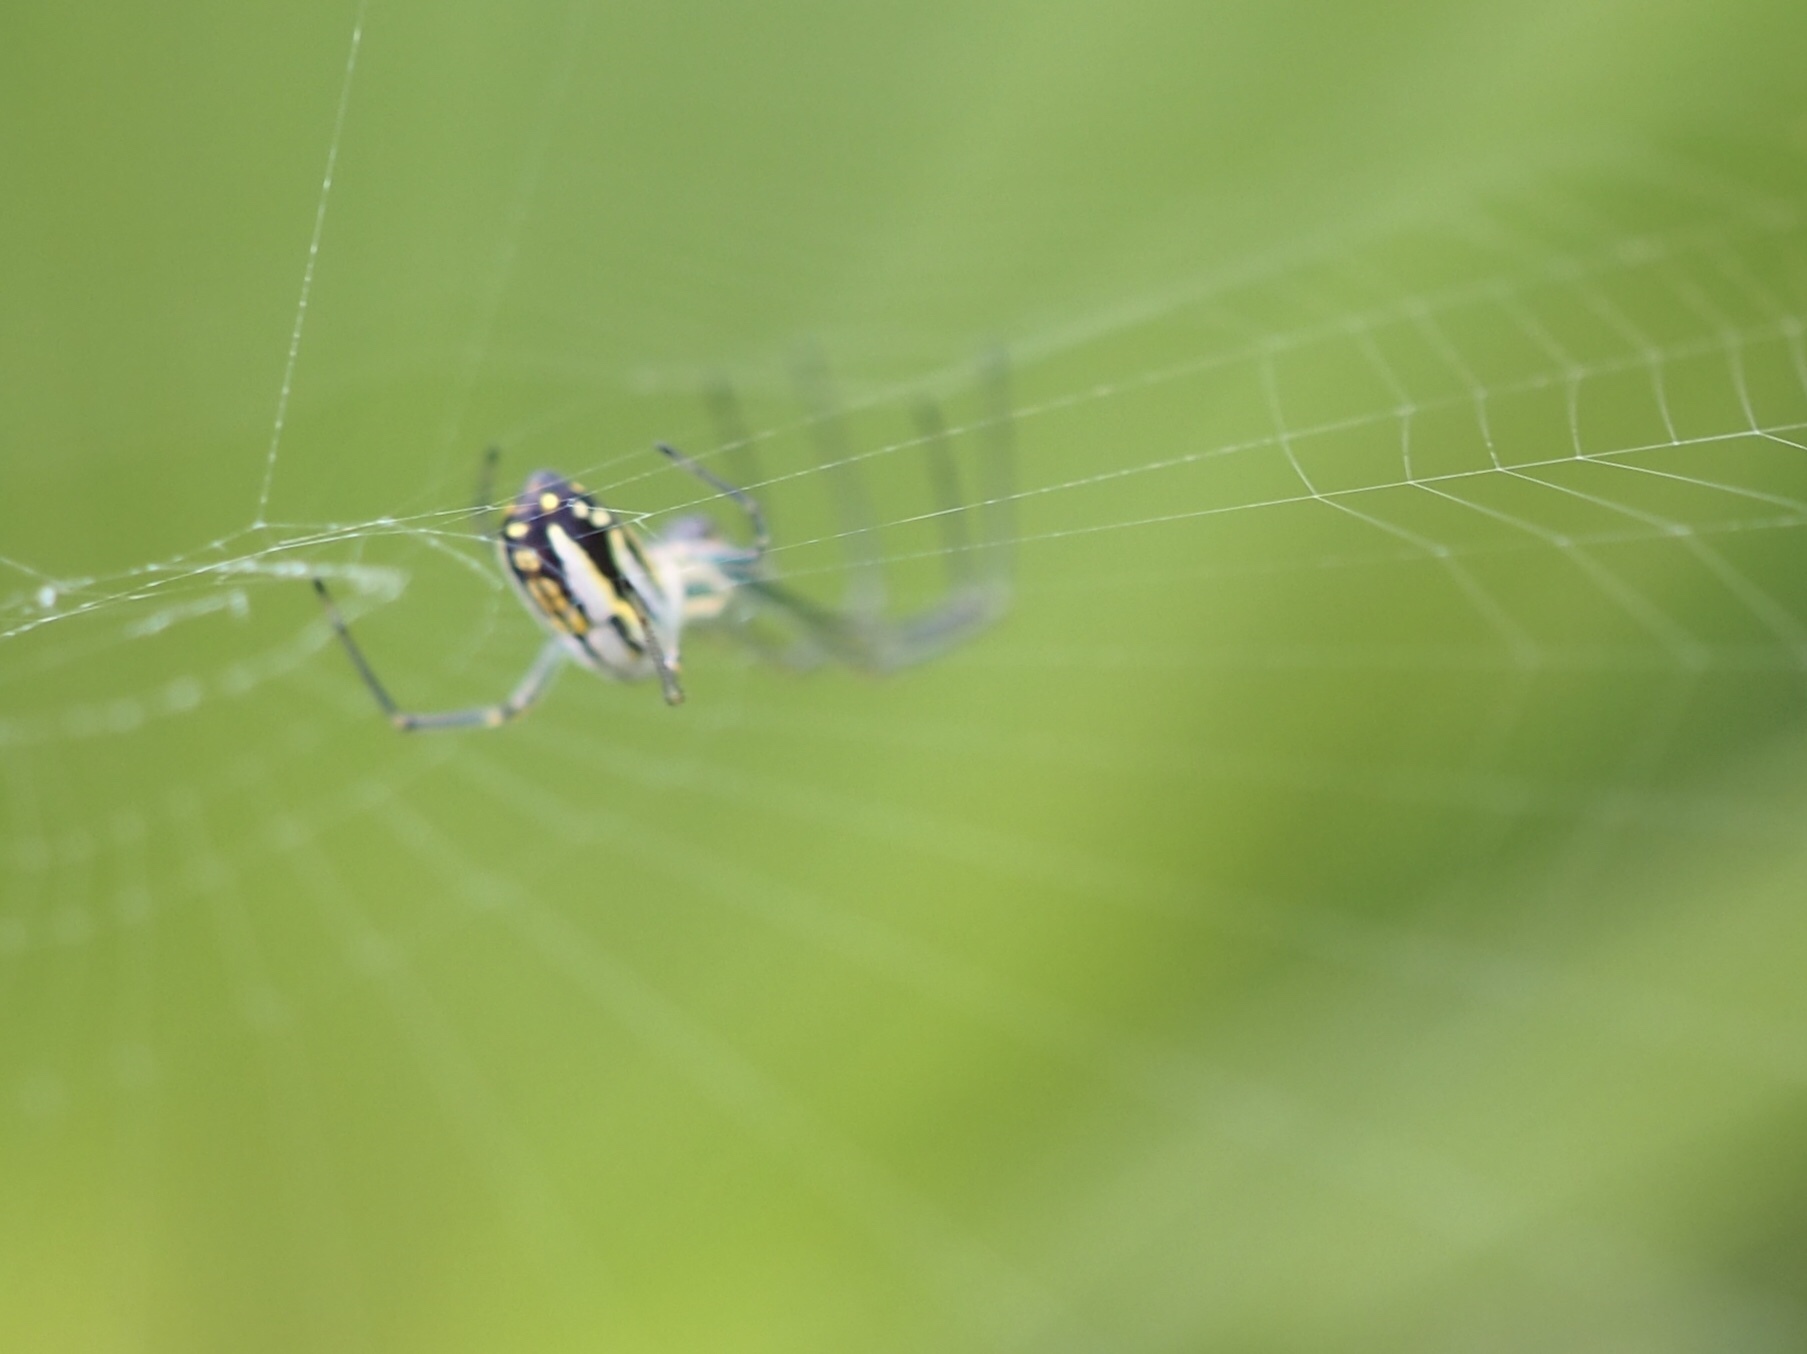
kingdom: Animalia
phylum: Arthropoda
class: Arachnida
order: Araneae
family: Tetragnathidae
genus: Leucauge
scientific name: Leucauge argyra
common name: Longjawed orb weavers
